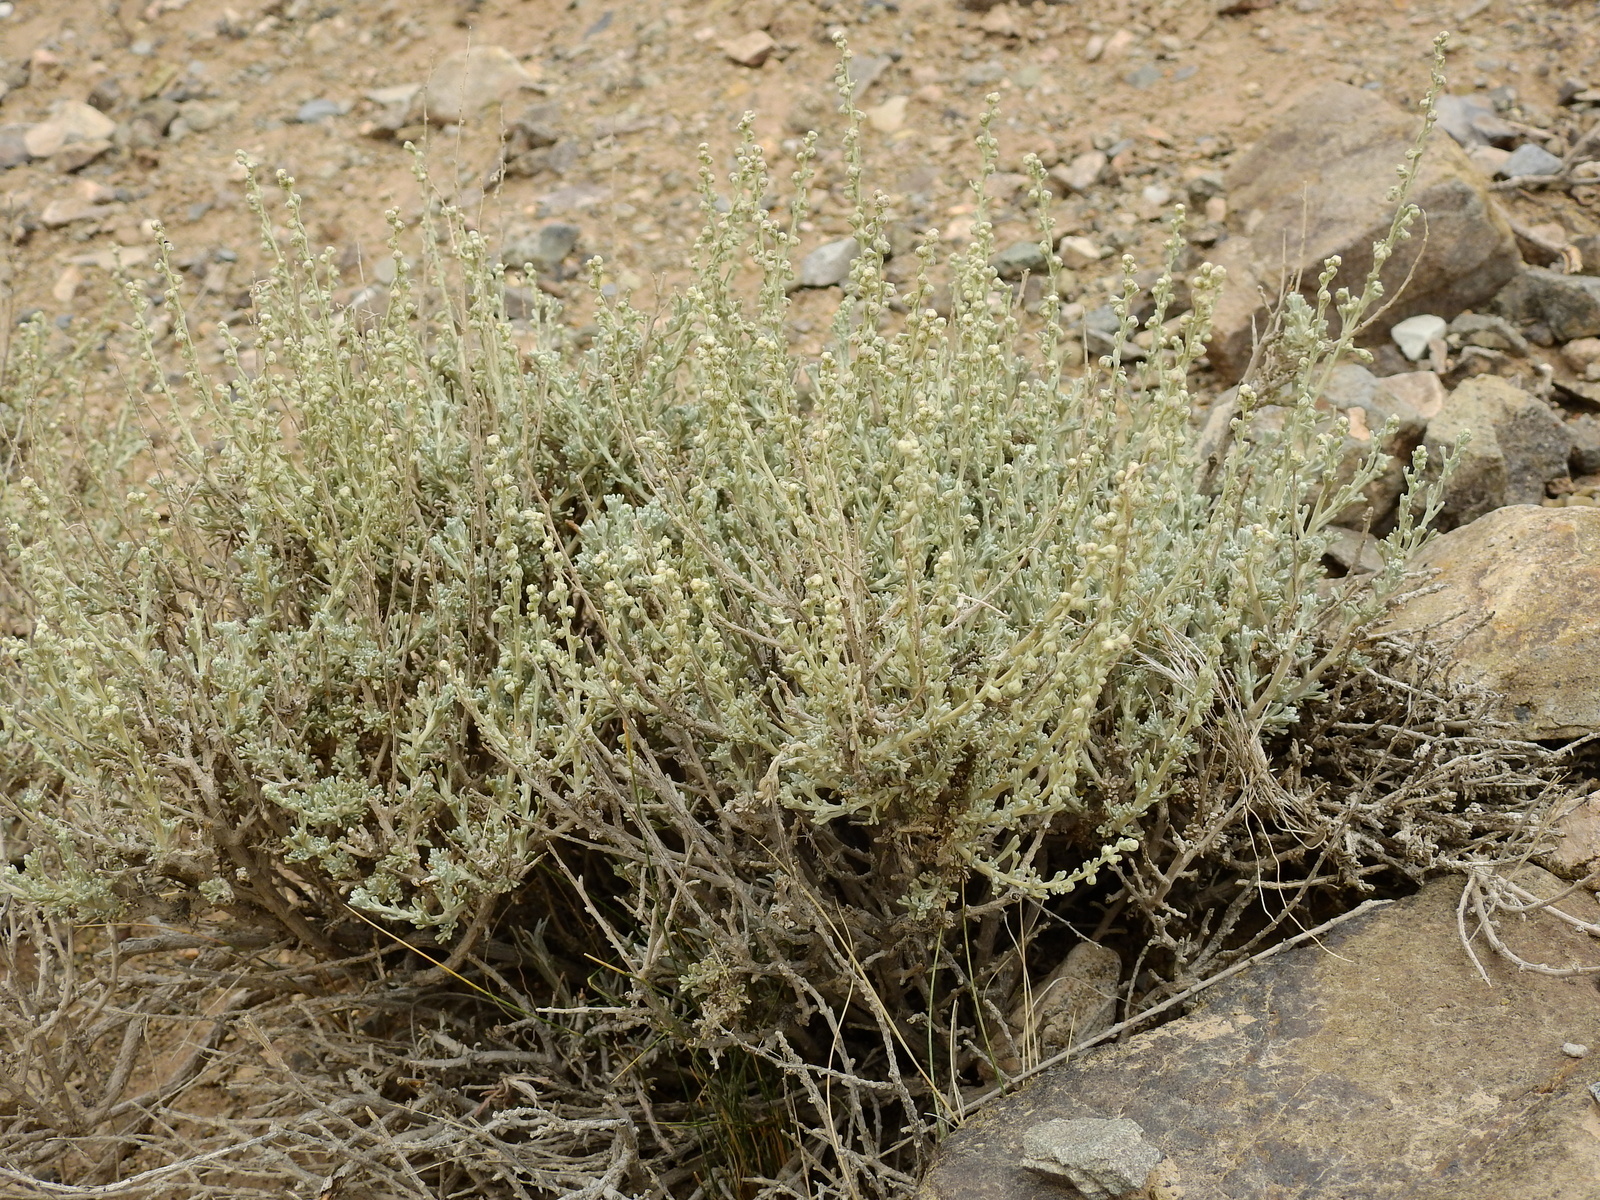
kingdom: Plantae
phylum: Tracheophyta
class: Magnoliopsida
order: Asterales
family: Asteraceae
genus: Artemisia
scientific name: Artemisia mendozana
